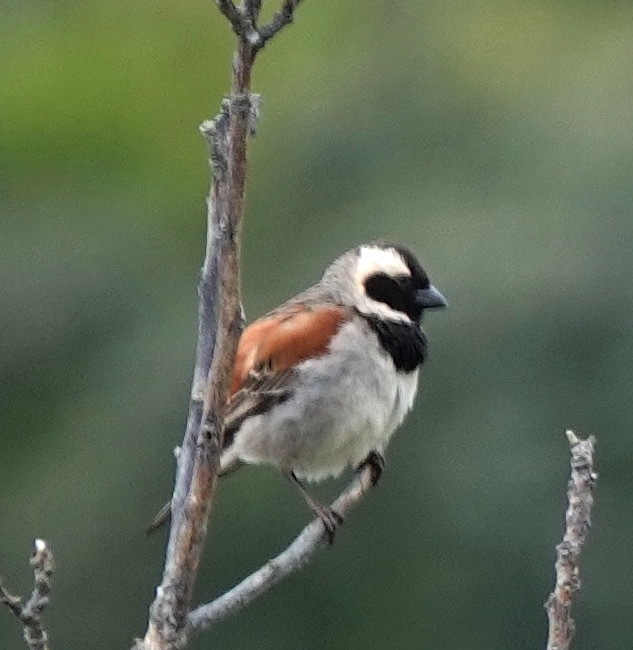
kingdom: Animalia
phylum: Chordata
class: Aves
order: Passeriformes
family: Passeridae
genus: Passer
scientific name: Passer melanurus
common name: Cape sparrow
